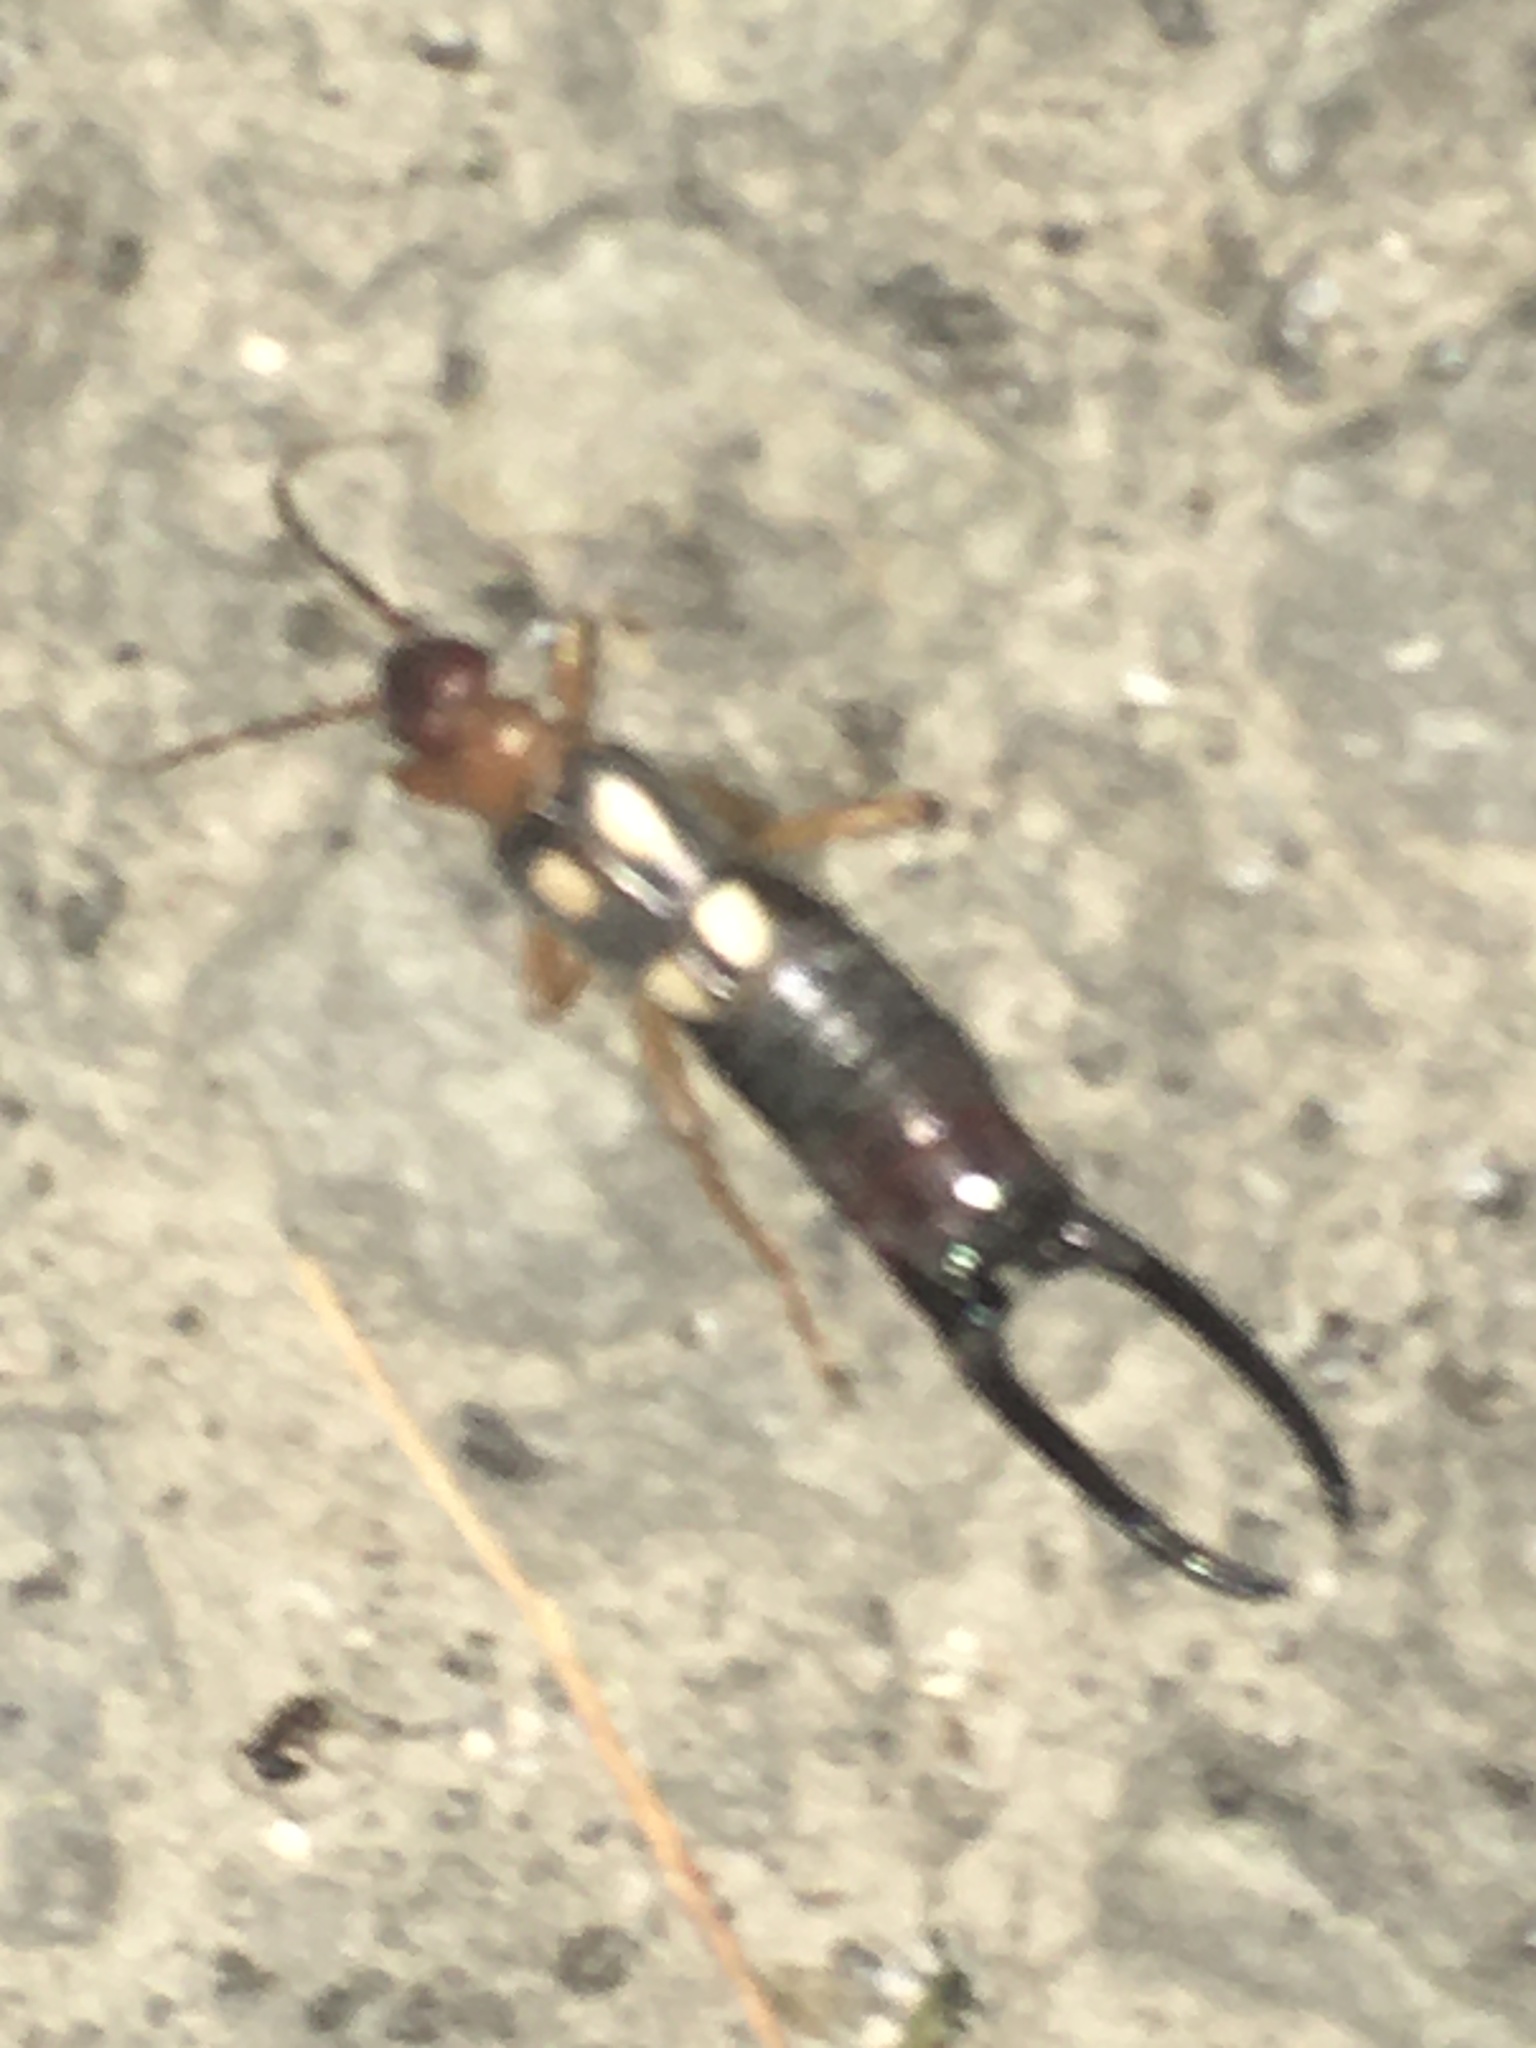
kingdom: Animalia
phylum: Arthropoda
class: Insecta
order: Dermaptera
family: Forficulidae
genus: Forficula
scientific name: Forficula smyrnensis
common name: Smyrna earwig
